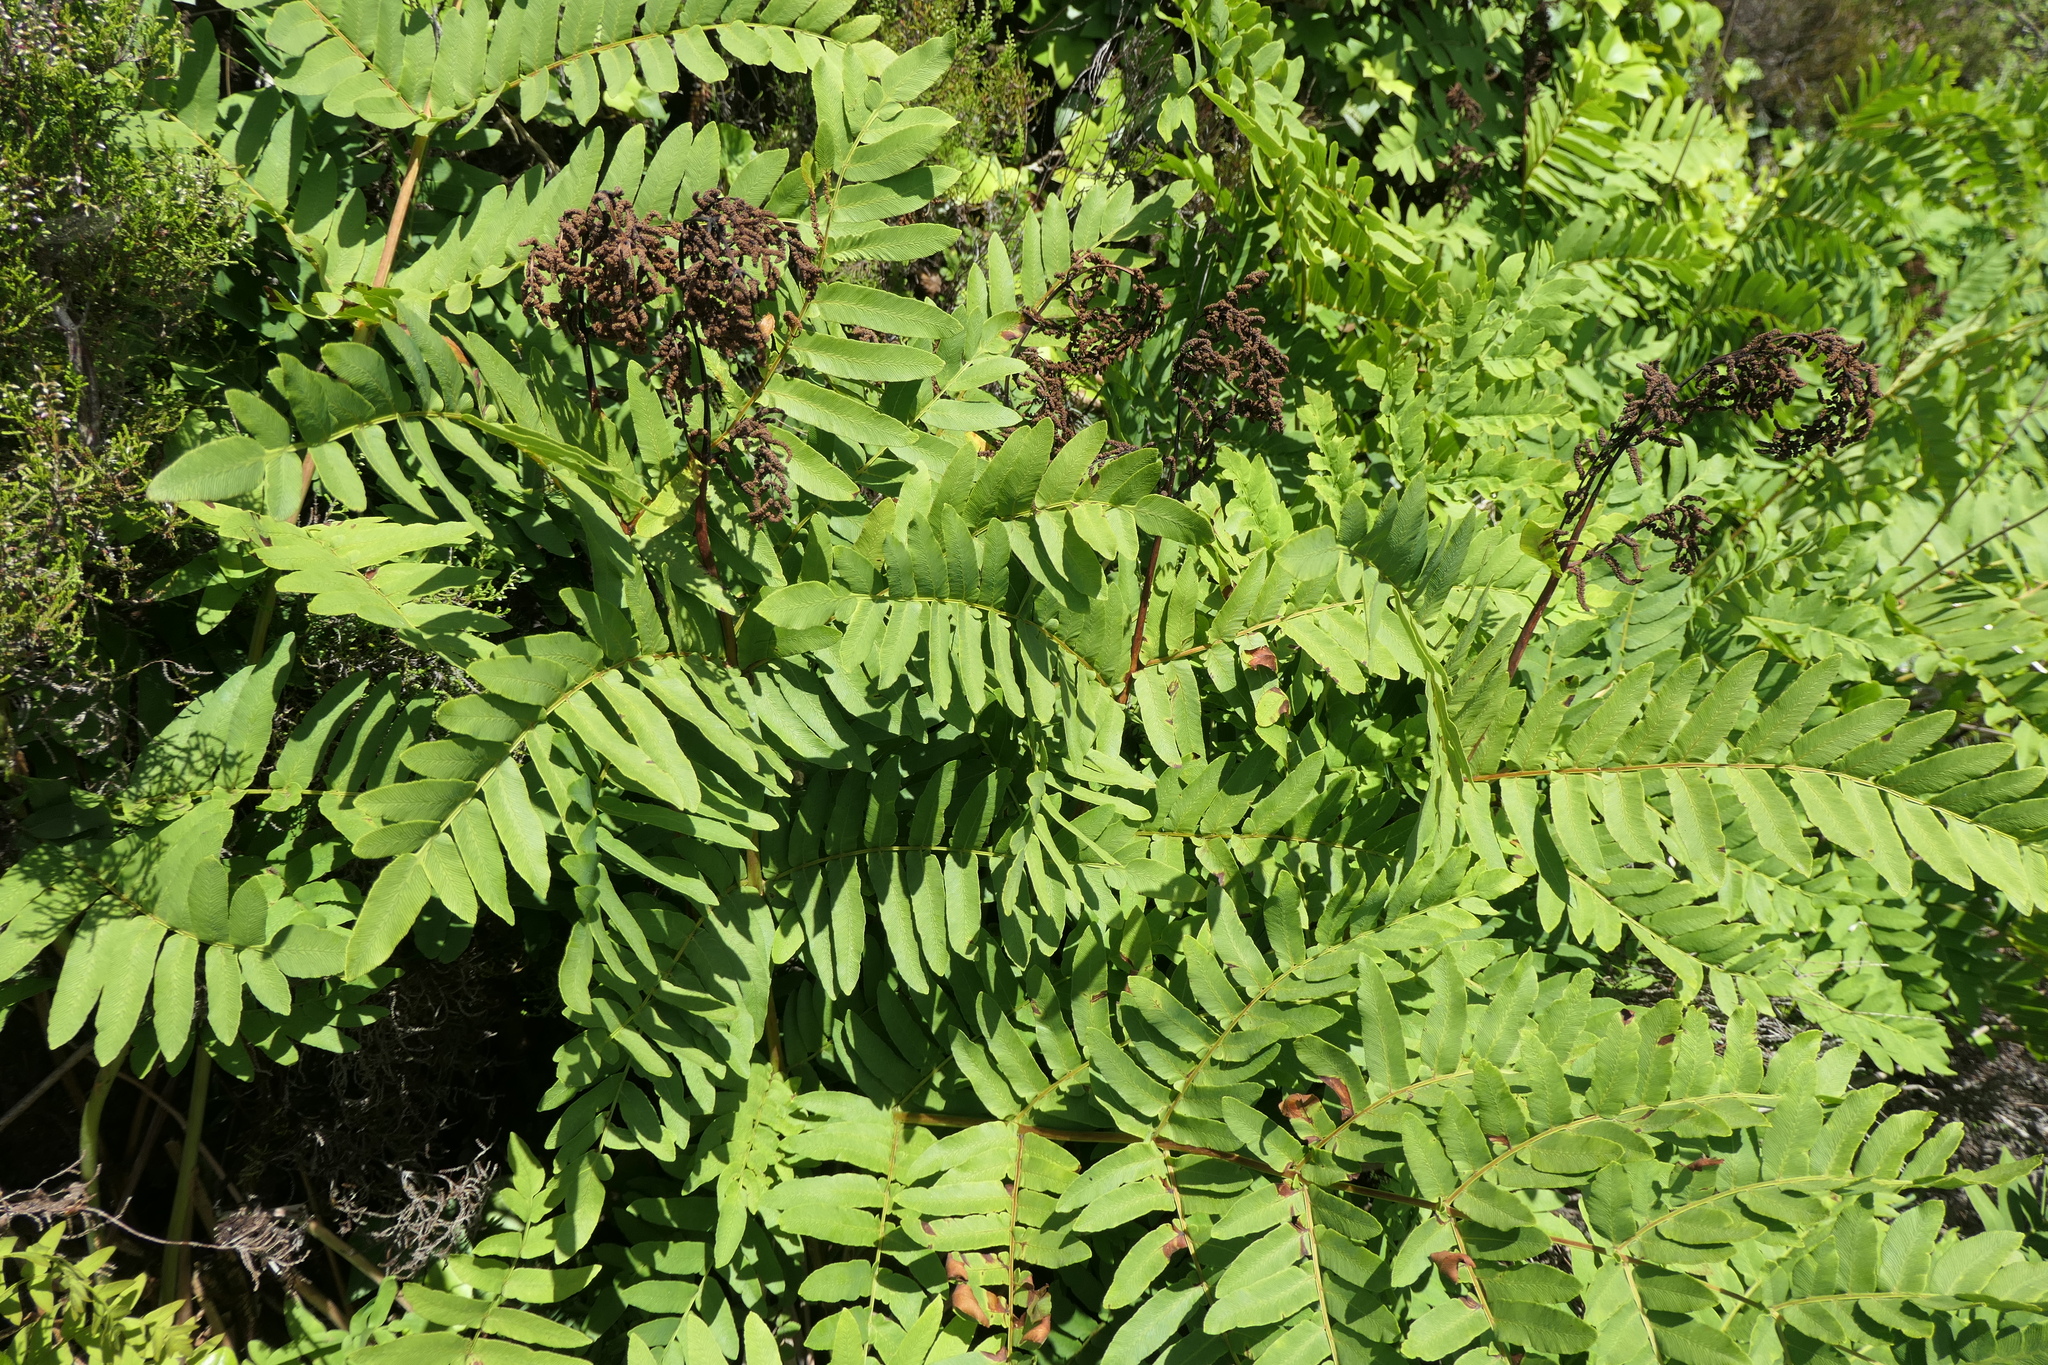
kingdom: Plantae
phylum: Tracheophyta
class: Polypodiopsida
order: Osmundales
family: Osmundaceae
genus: Osmunda
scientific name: Osmunda regalis
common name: Royal fern
